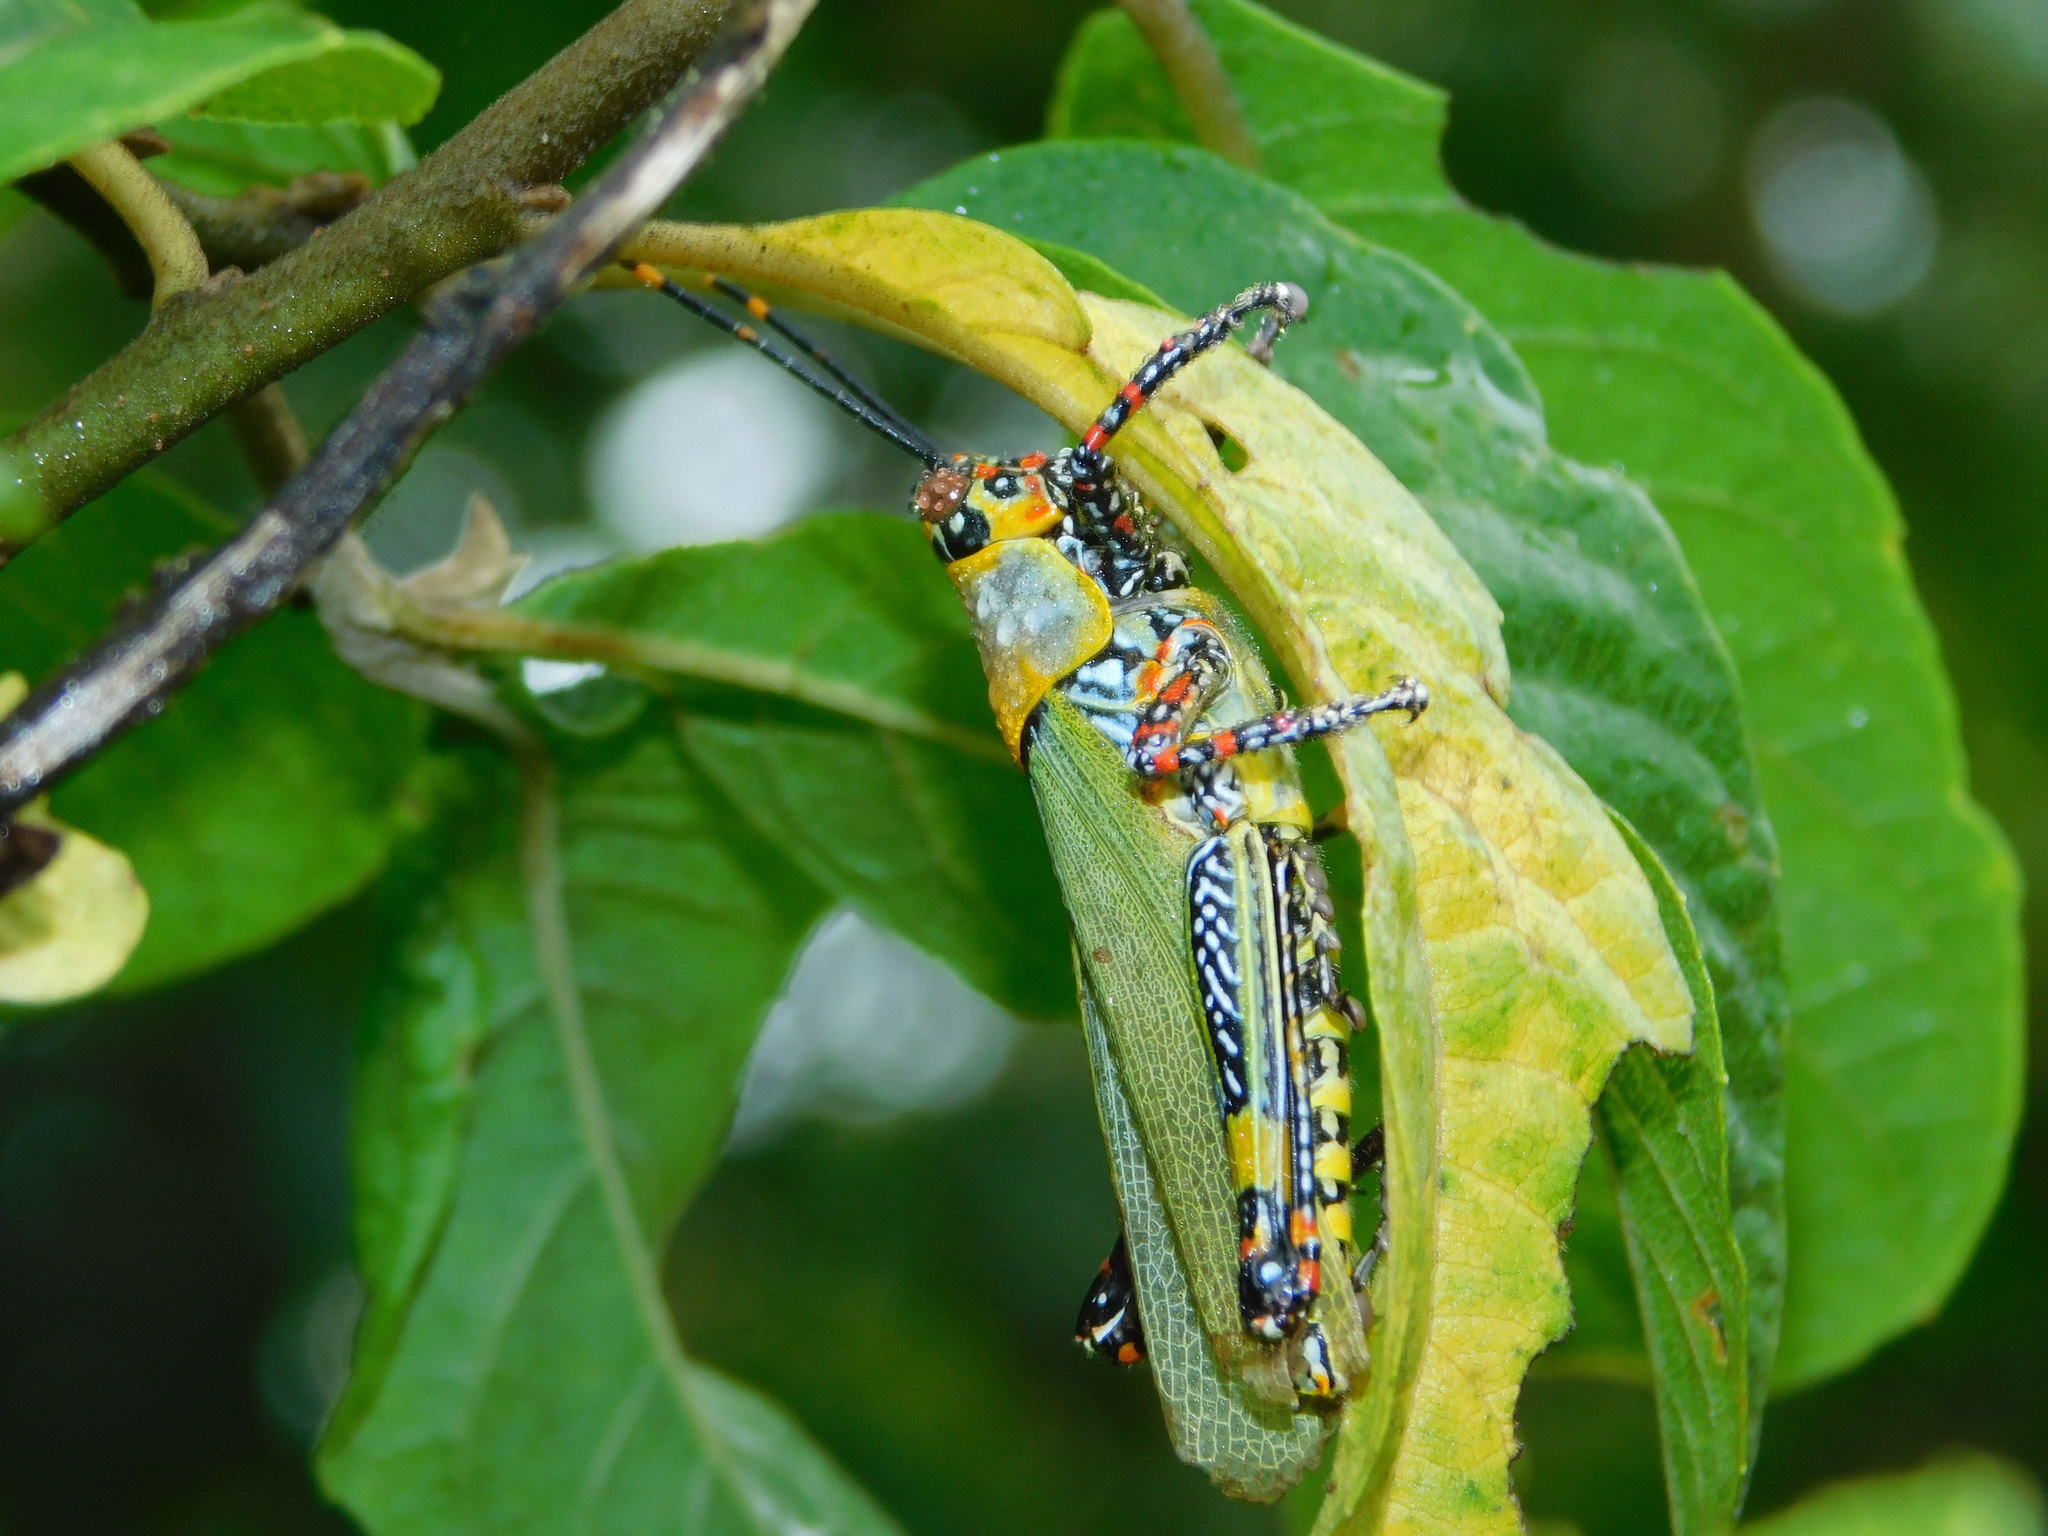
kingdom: Animalia
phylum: Arthropoda
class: Insecta
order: Orthoptera
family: Pyrgomorphidae
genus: Zonocerus
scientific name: Zonocerus variegatus
